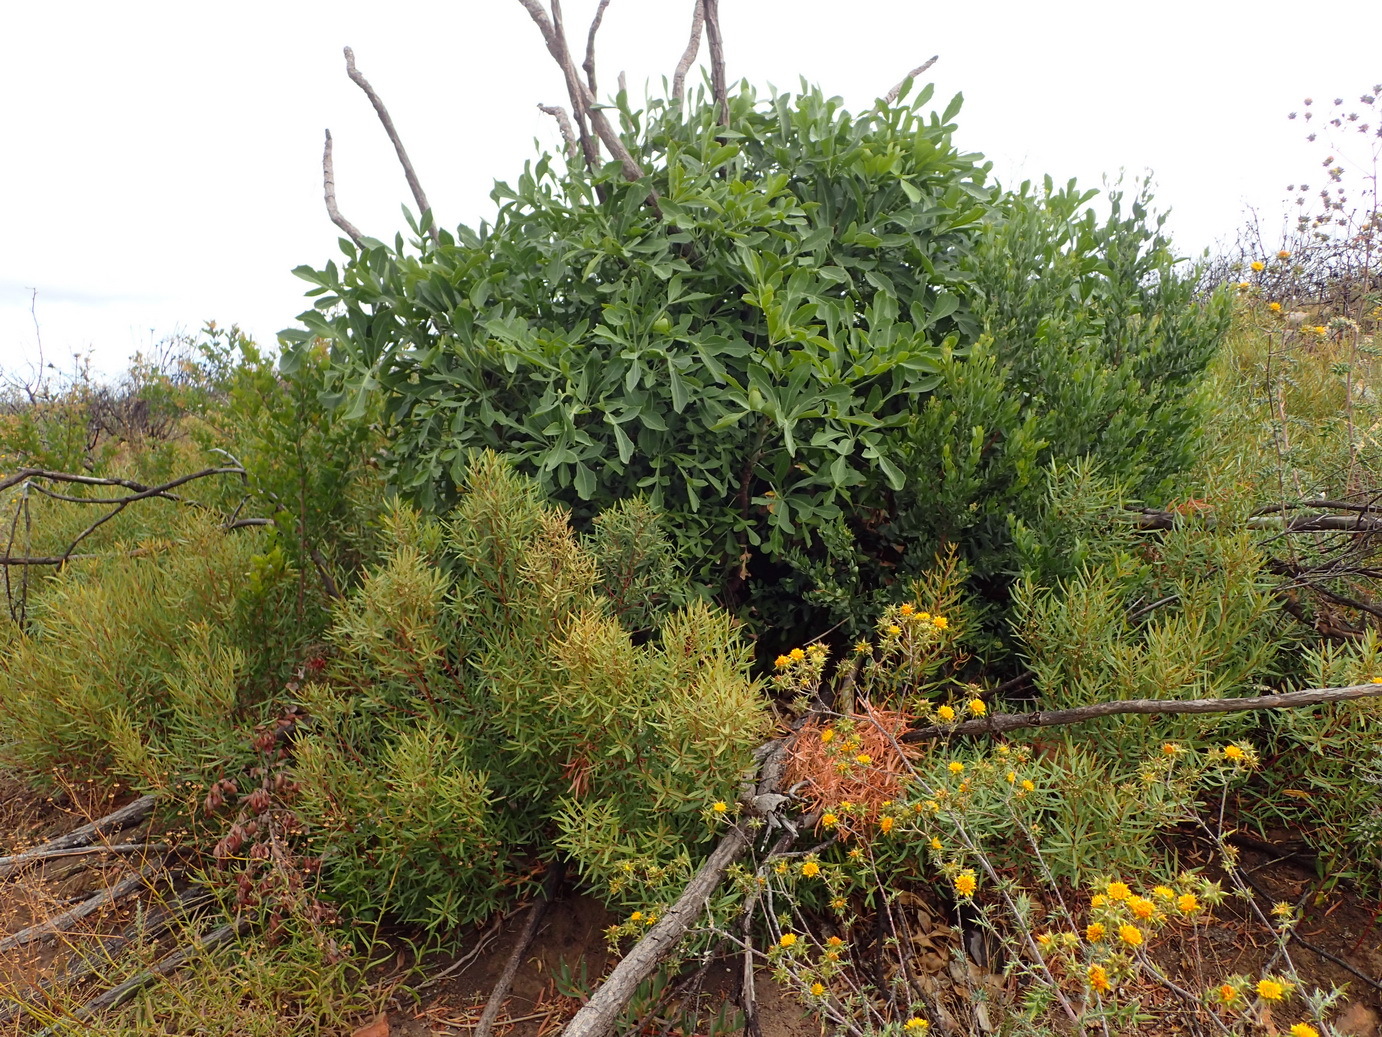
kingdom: Plantae
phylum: Tracheophyta
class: Magnoliopsida
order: Apiales
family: Araliaceae
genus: Cussonia
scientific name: Cussonia spicata
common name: Common cabbagetree
